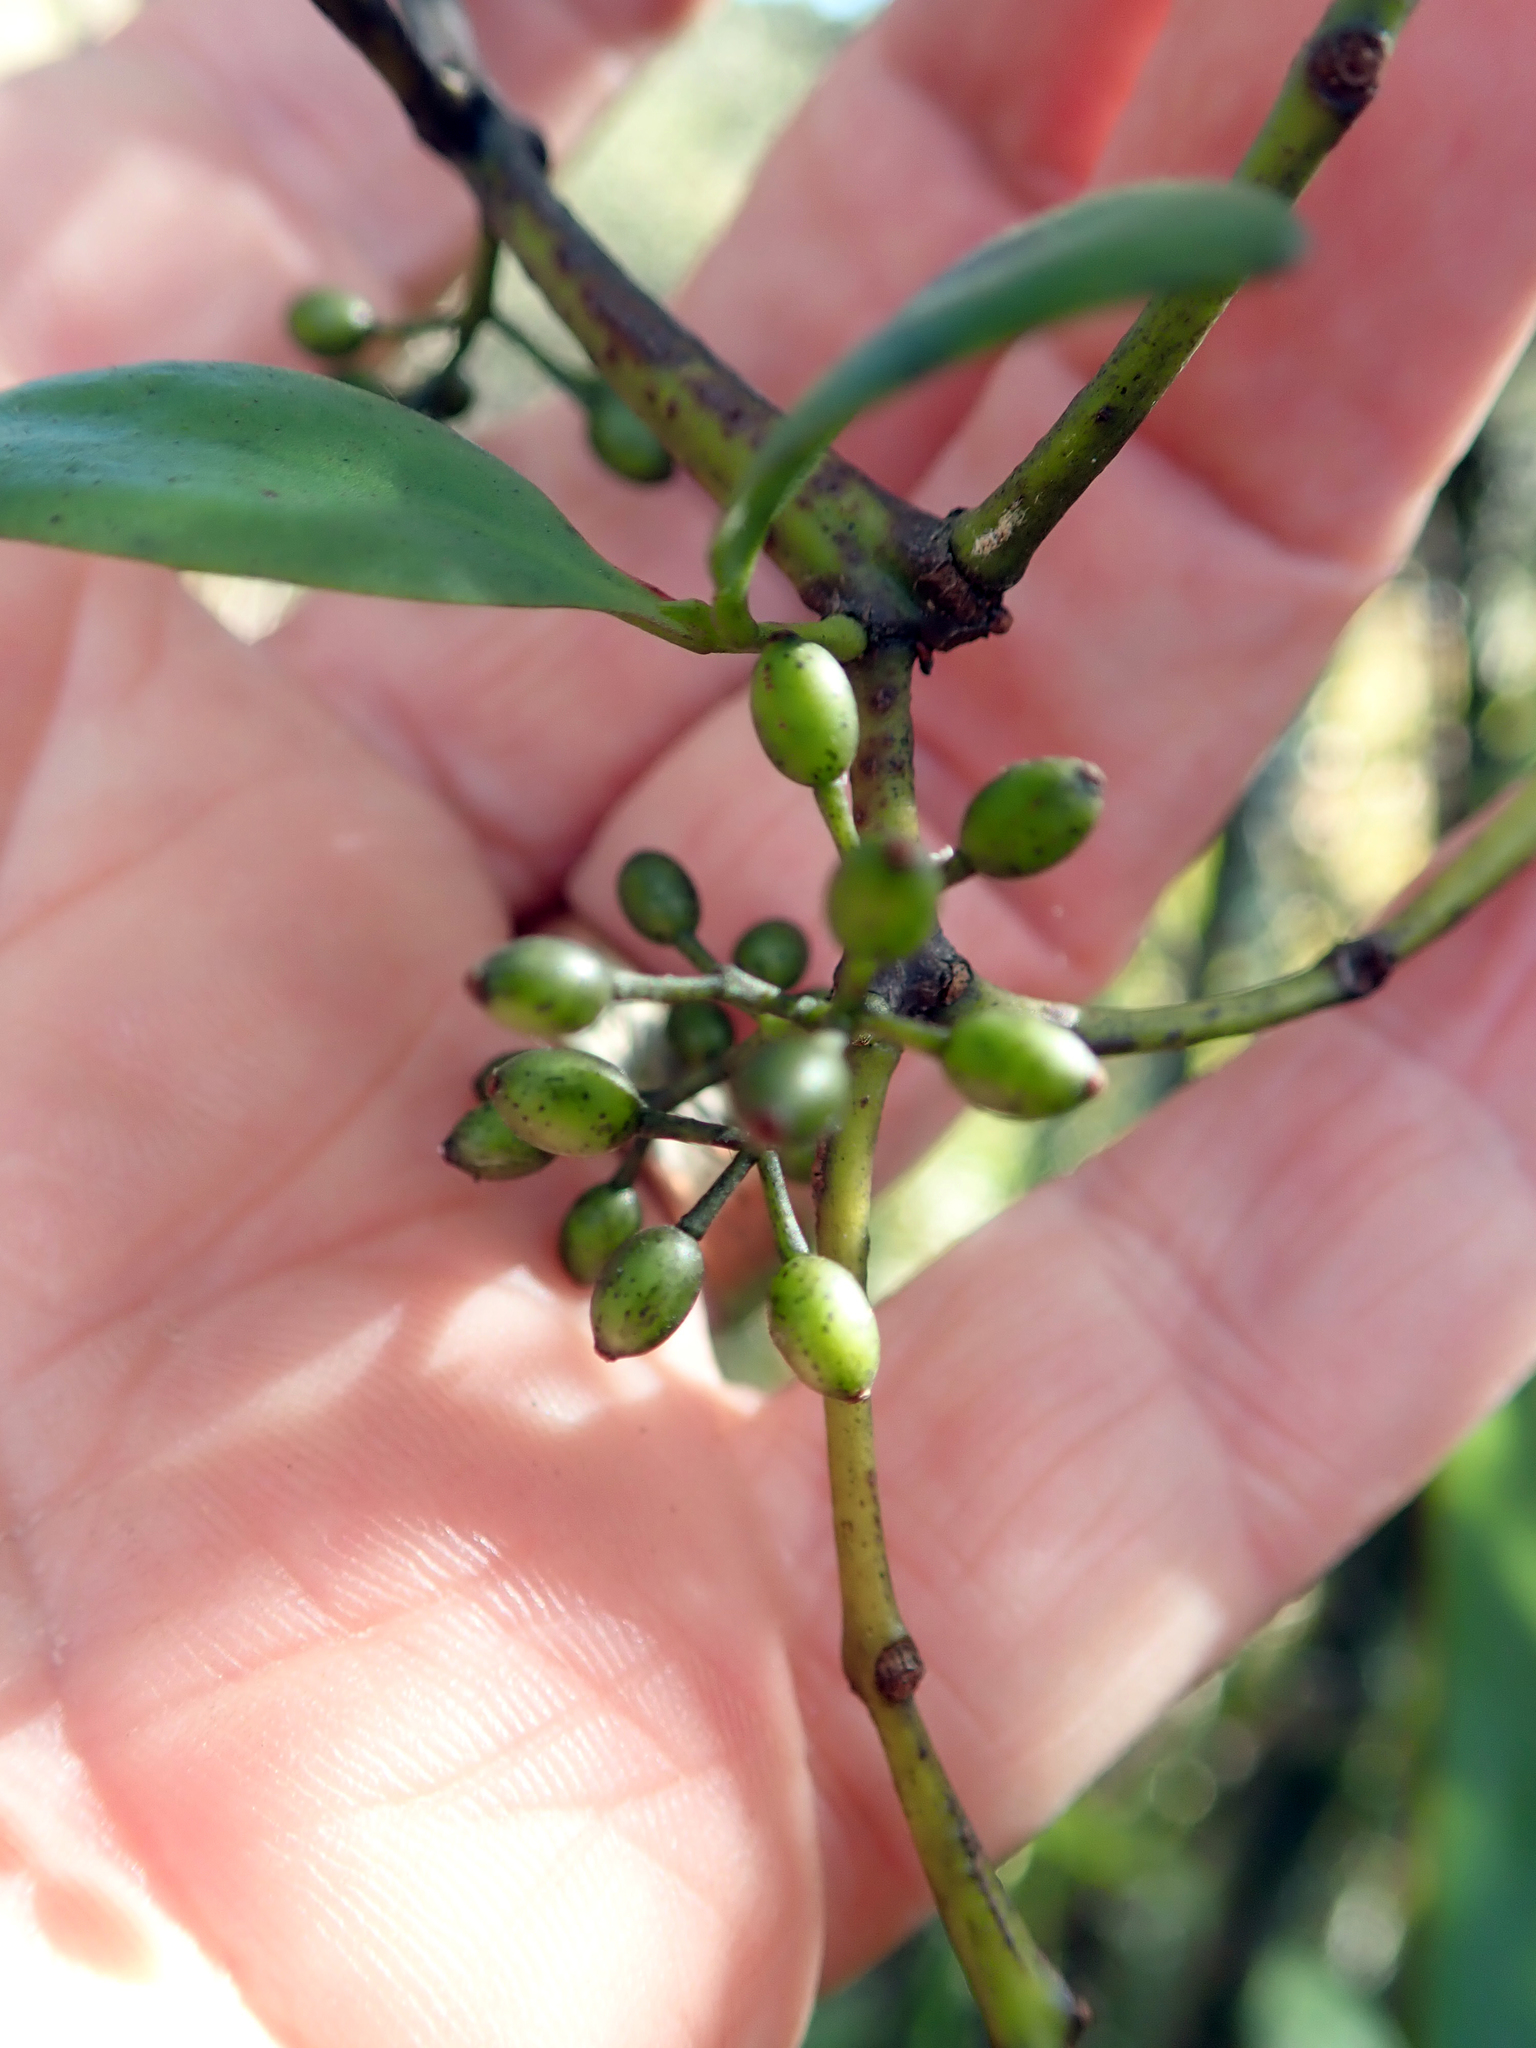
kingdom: Plantae
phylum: Tracheophyta
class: Magnoliopsida
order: Santalales
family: Loranthaceae
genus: Ileostylus
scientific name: Ileostylus micranthus
